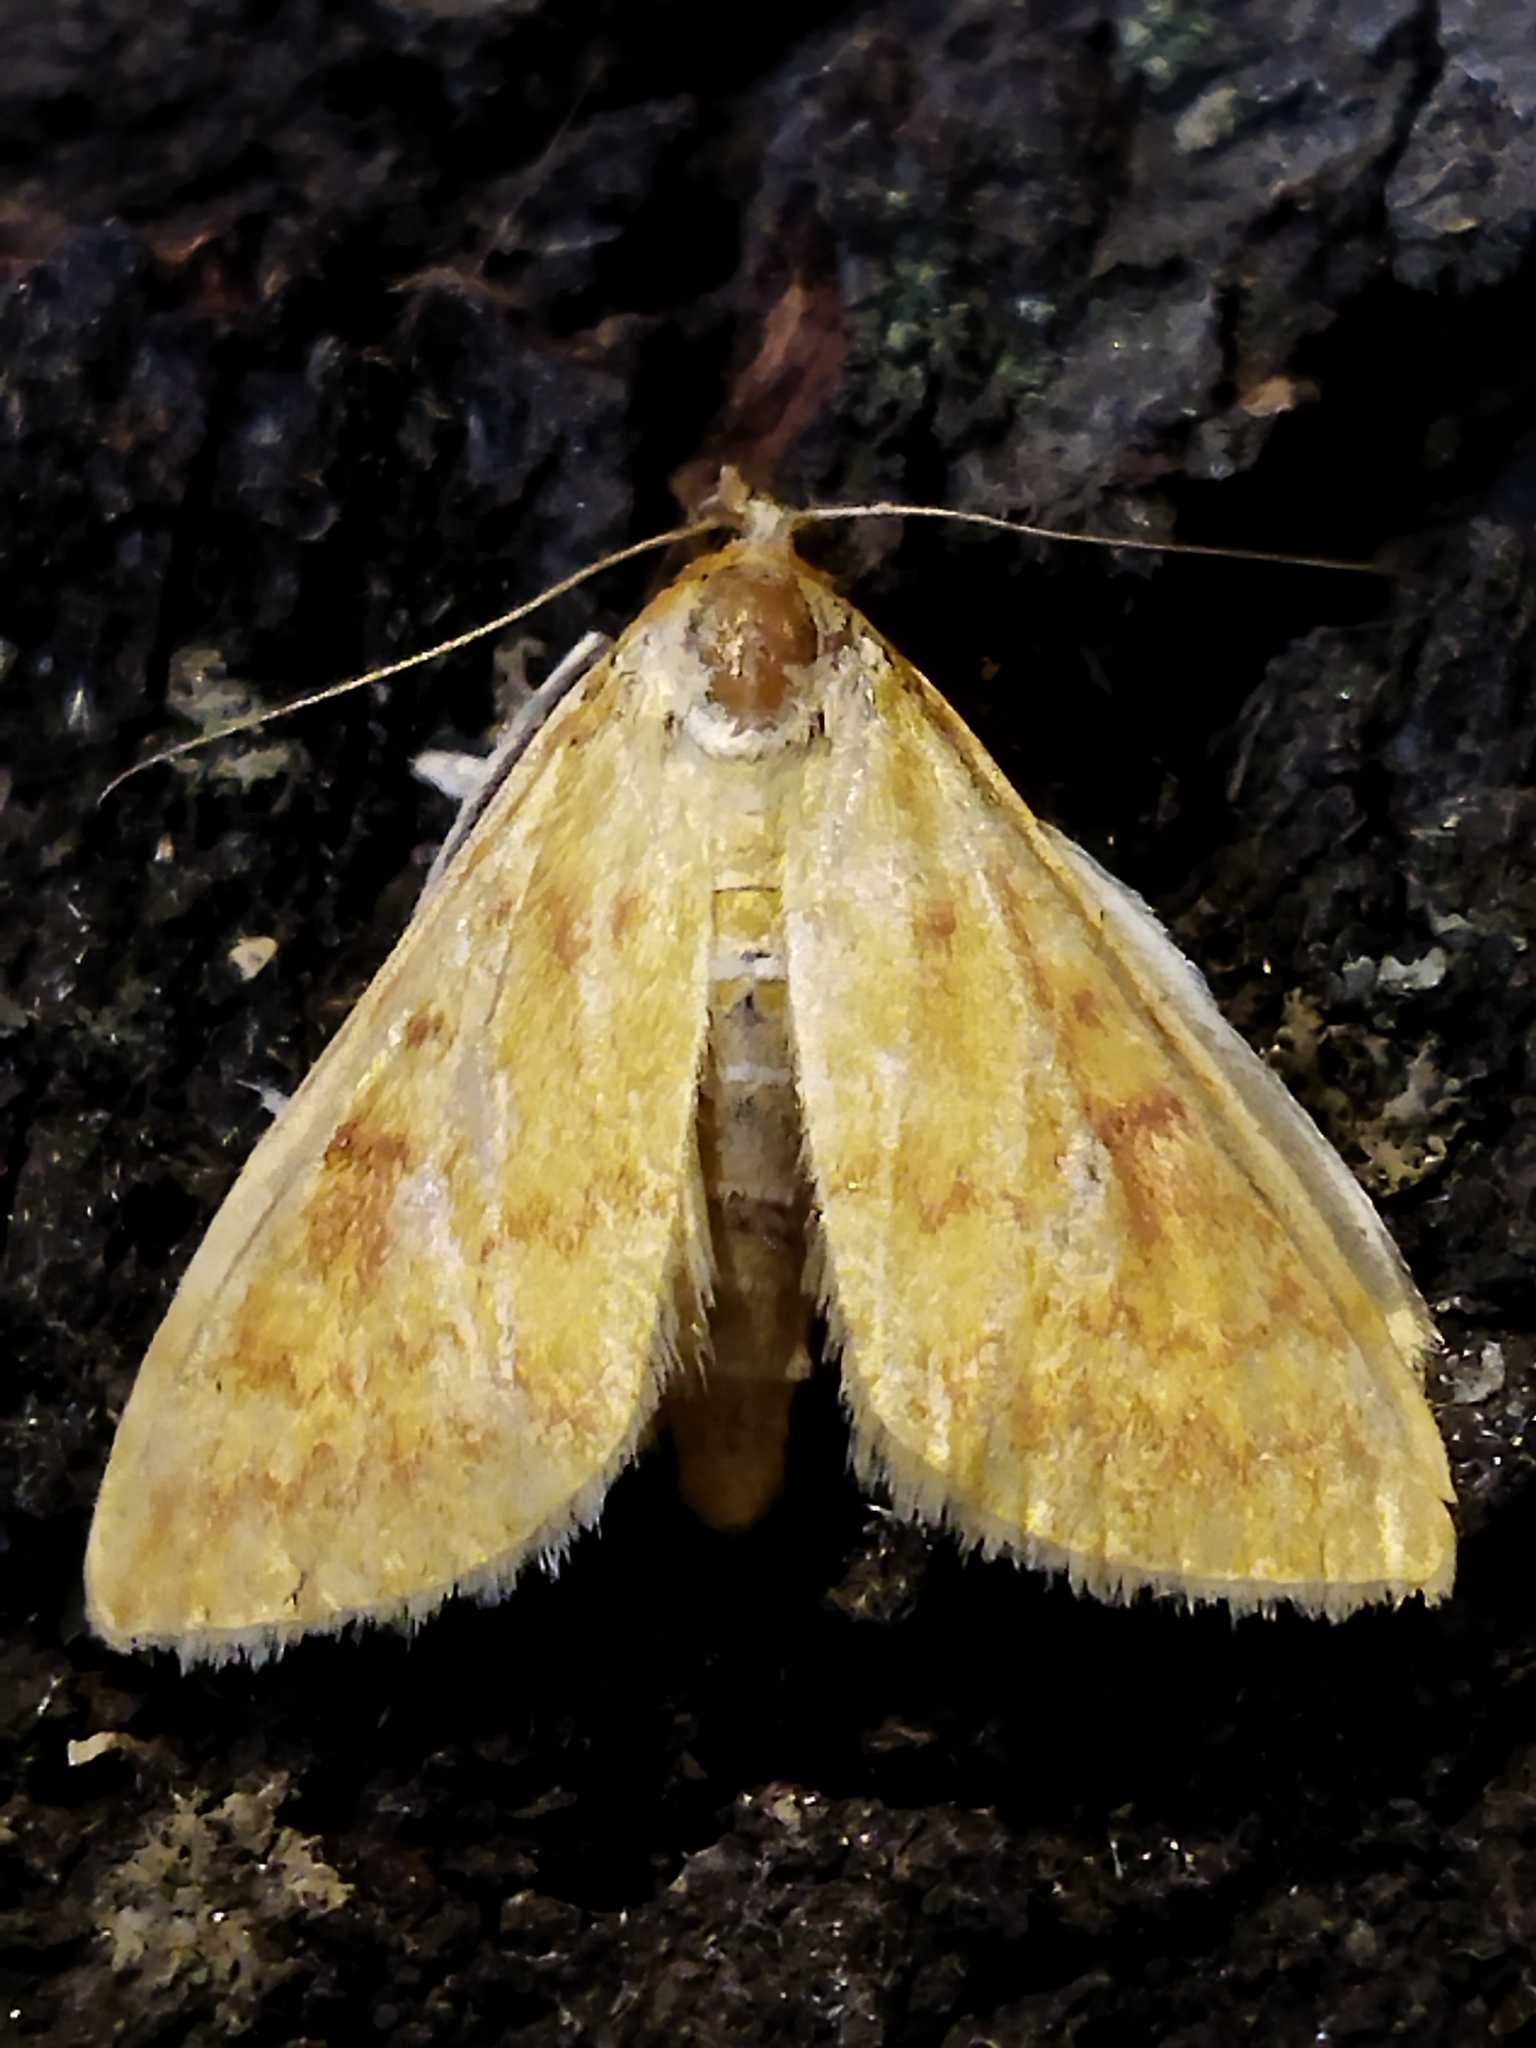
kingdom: Animalia
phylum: Arthropoda
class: Insecta
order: Lepidoptera
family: Crambidae
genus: Ostrinia
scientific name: Ostrinia nubilalis
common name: European corn borer
